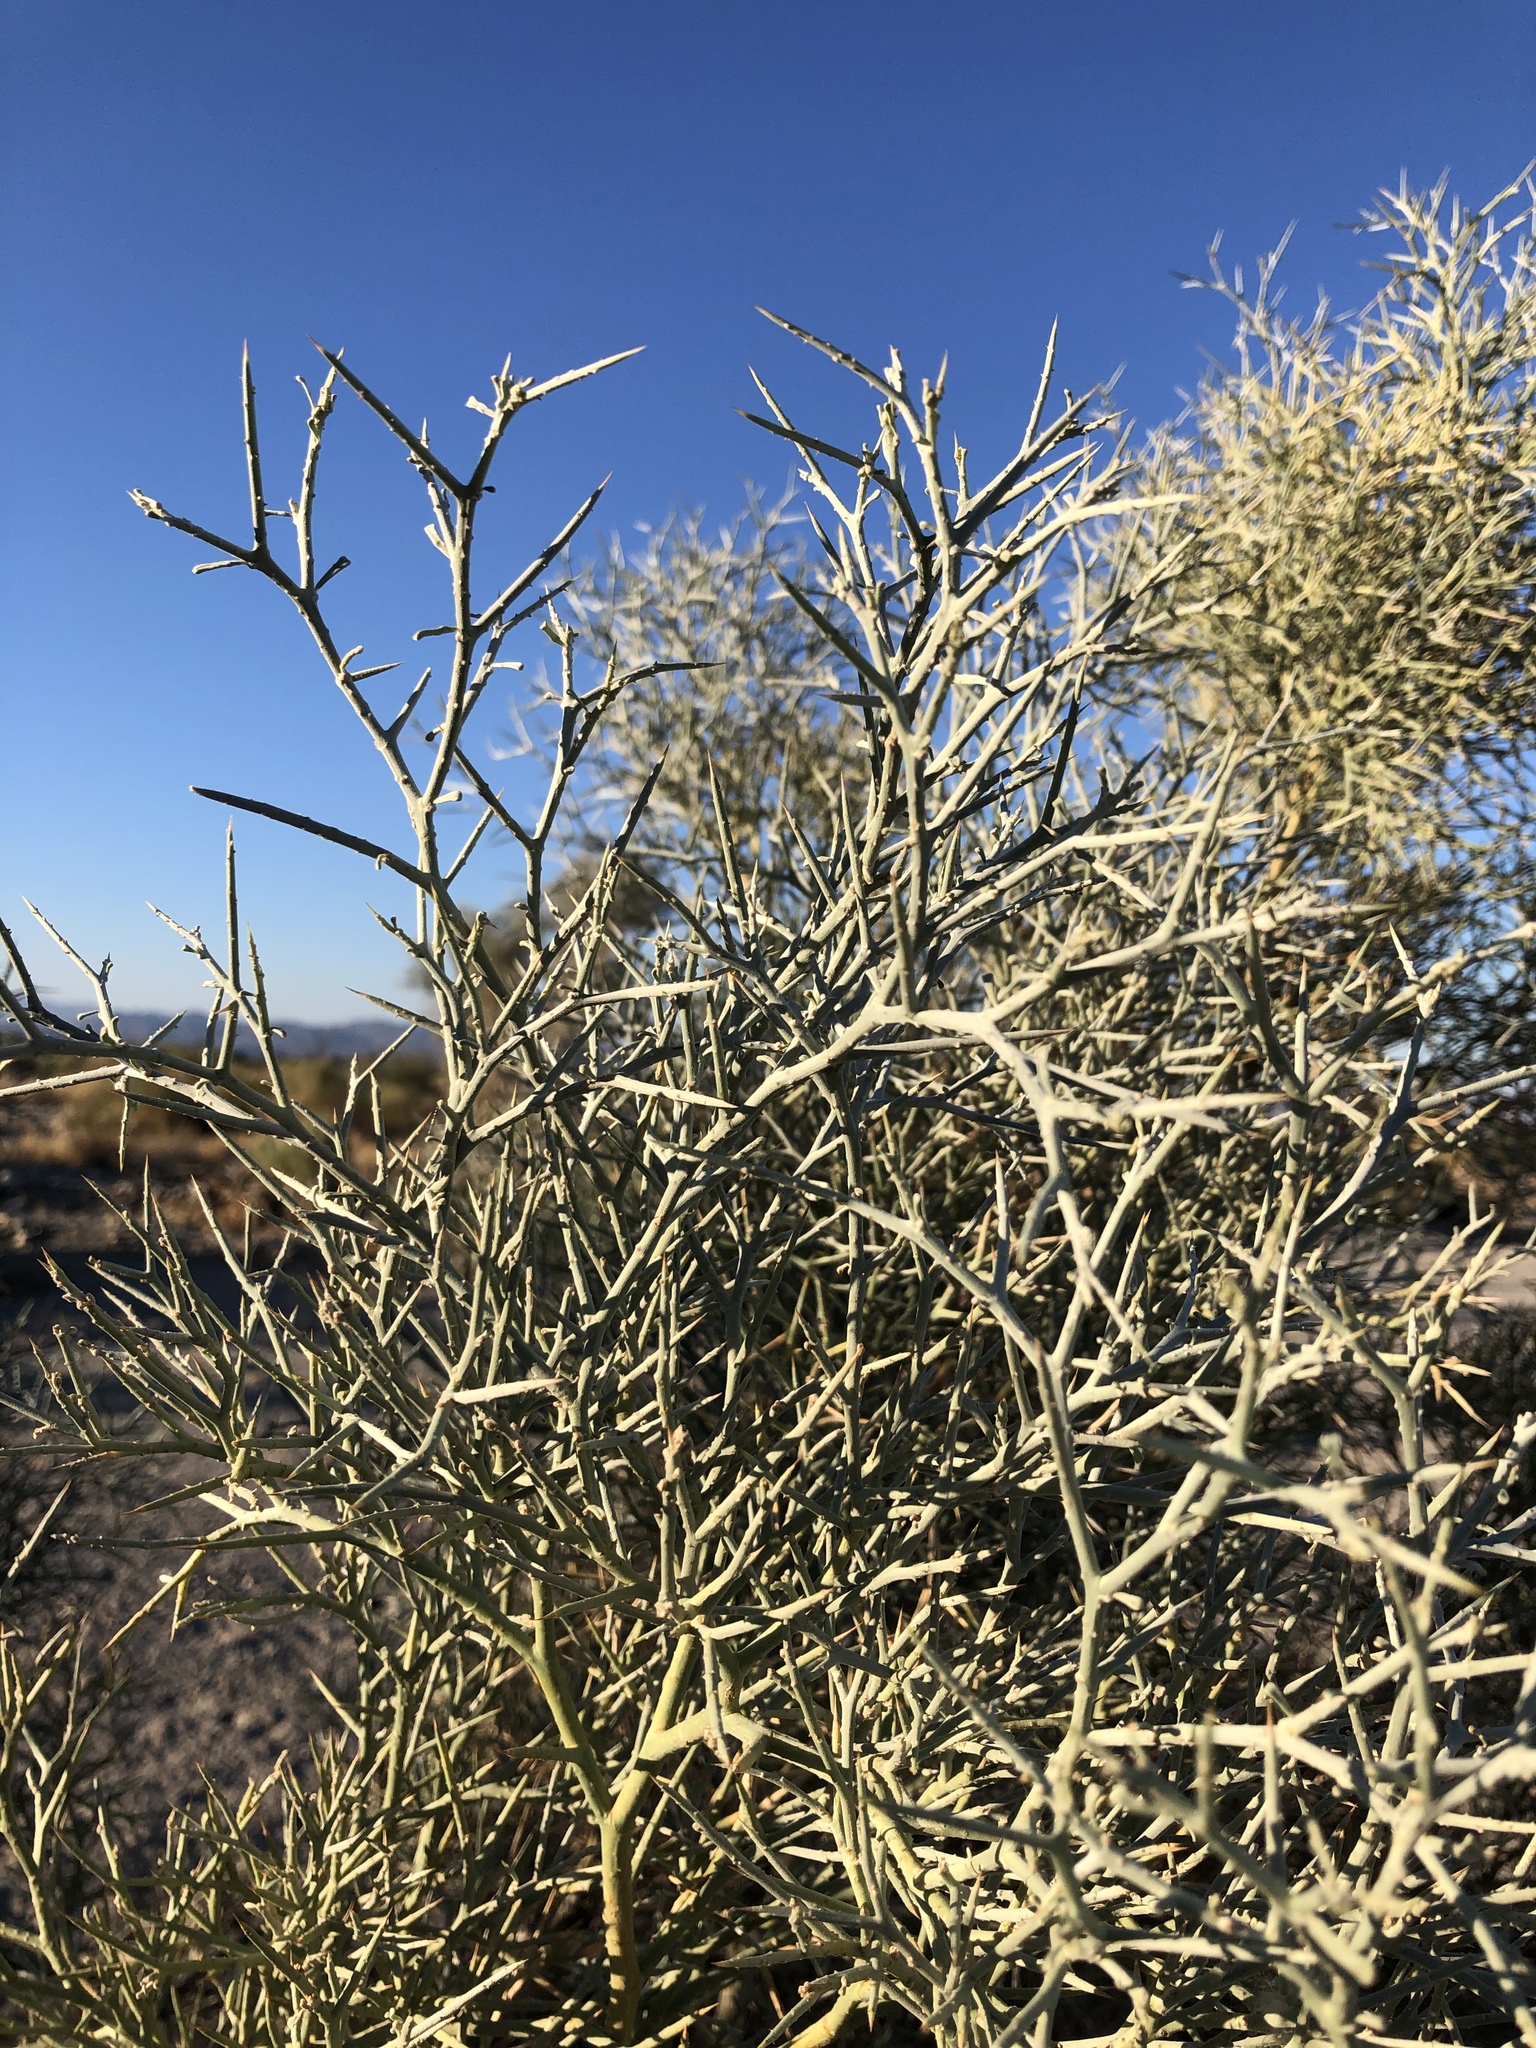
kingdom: Plantae
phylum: Tracheophyta
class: Magnoliopsida
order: Fabales
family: Fabaceae
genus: Psorothamnus
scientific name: Psorothamnus spinosus
